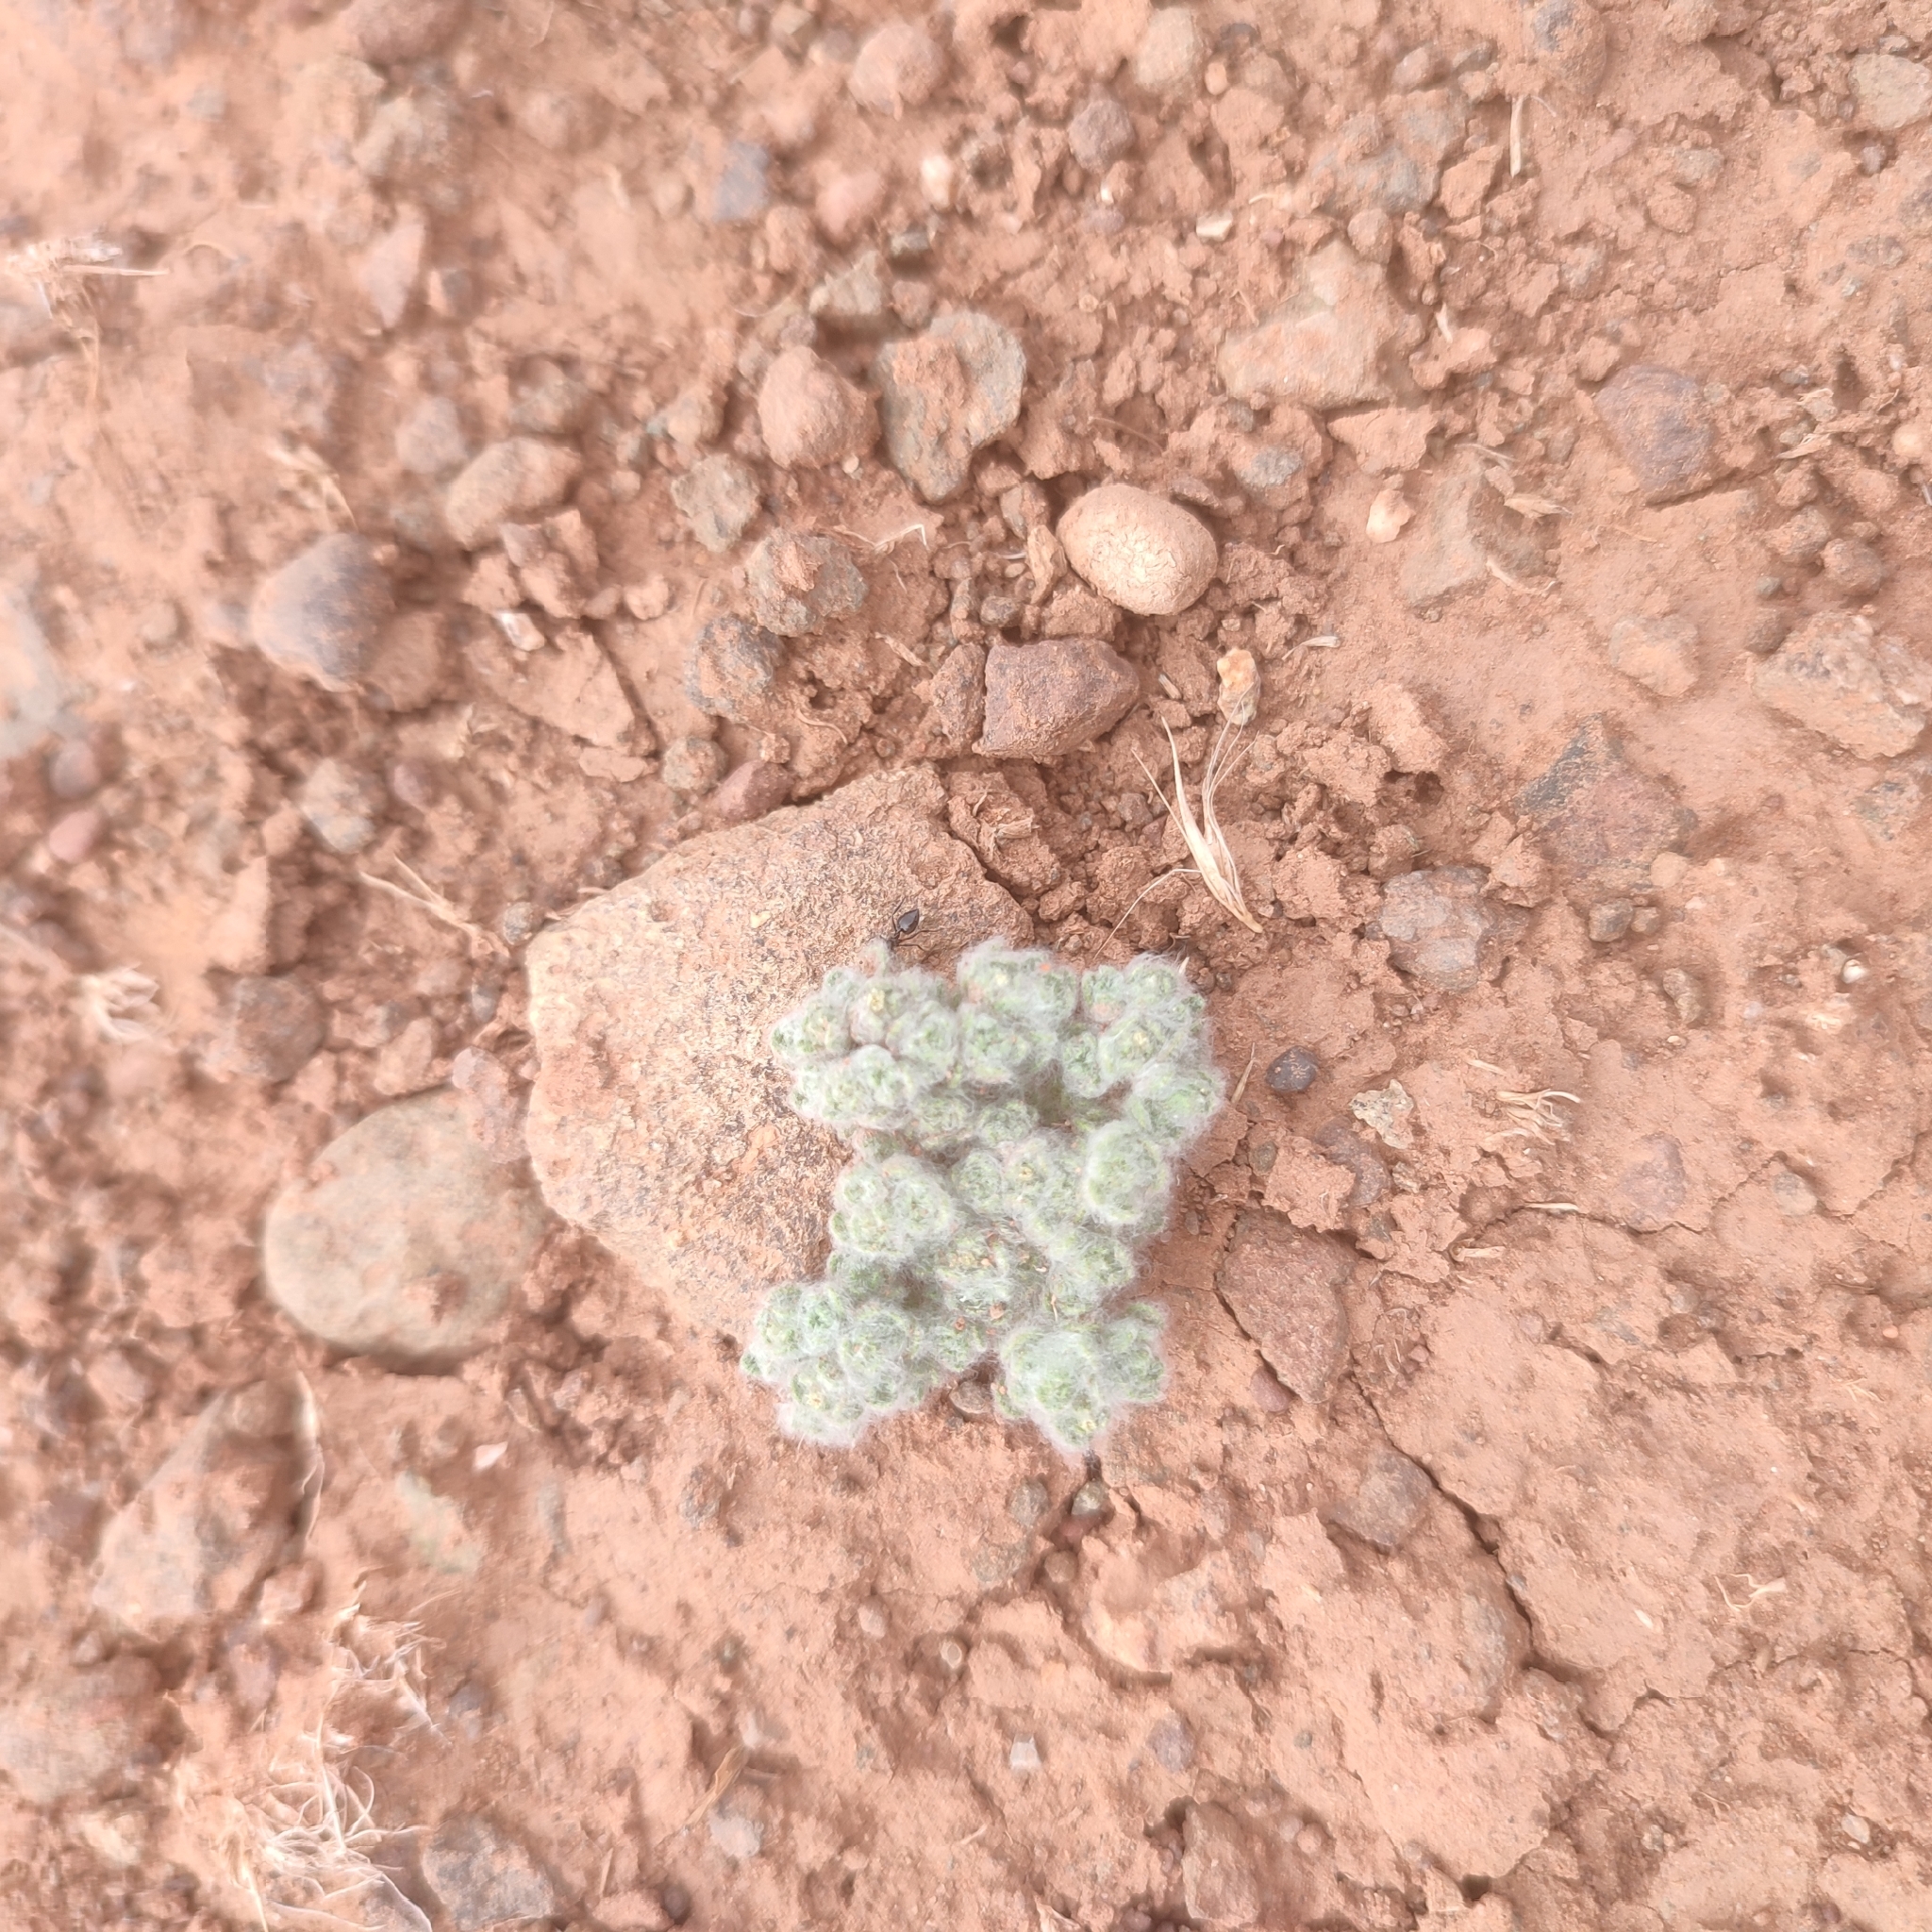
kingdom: Plantae
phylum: Tracheophyta
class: Magnoliopsida
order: Asterales
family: Asteraceae
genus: Filago
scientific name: Filago crocidion
